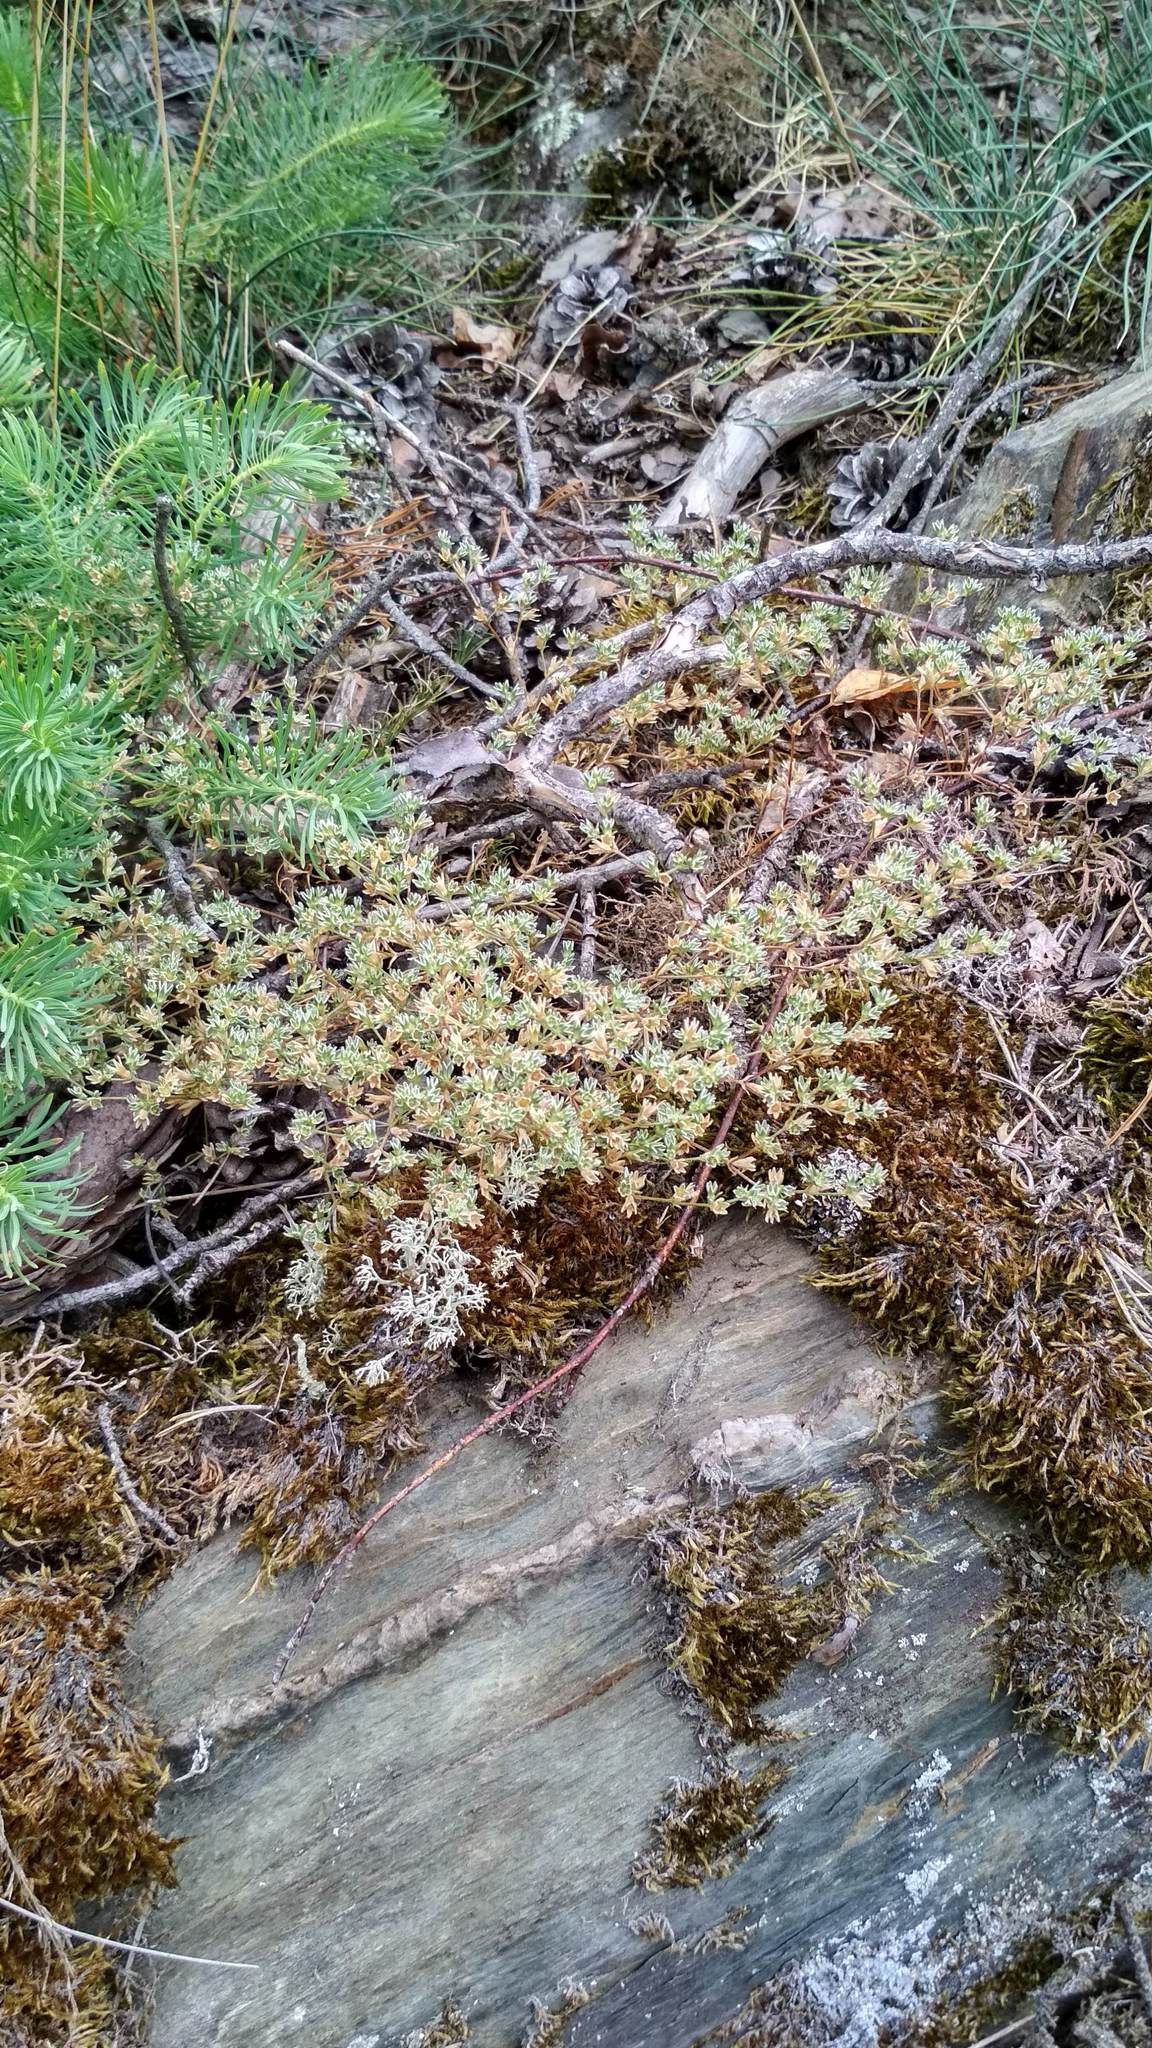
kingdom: Plantae
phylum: Tracheophyta
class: Magnoliopsida
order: Caryophyllales
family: Caryophyllaceae
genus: Scleranthus
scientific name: Scleranthus annuus
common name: Annual knawel
